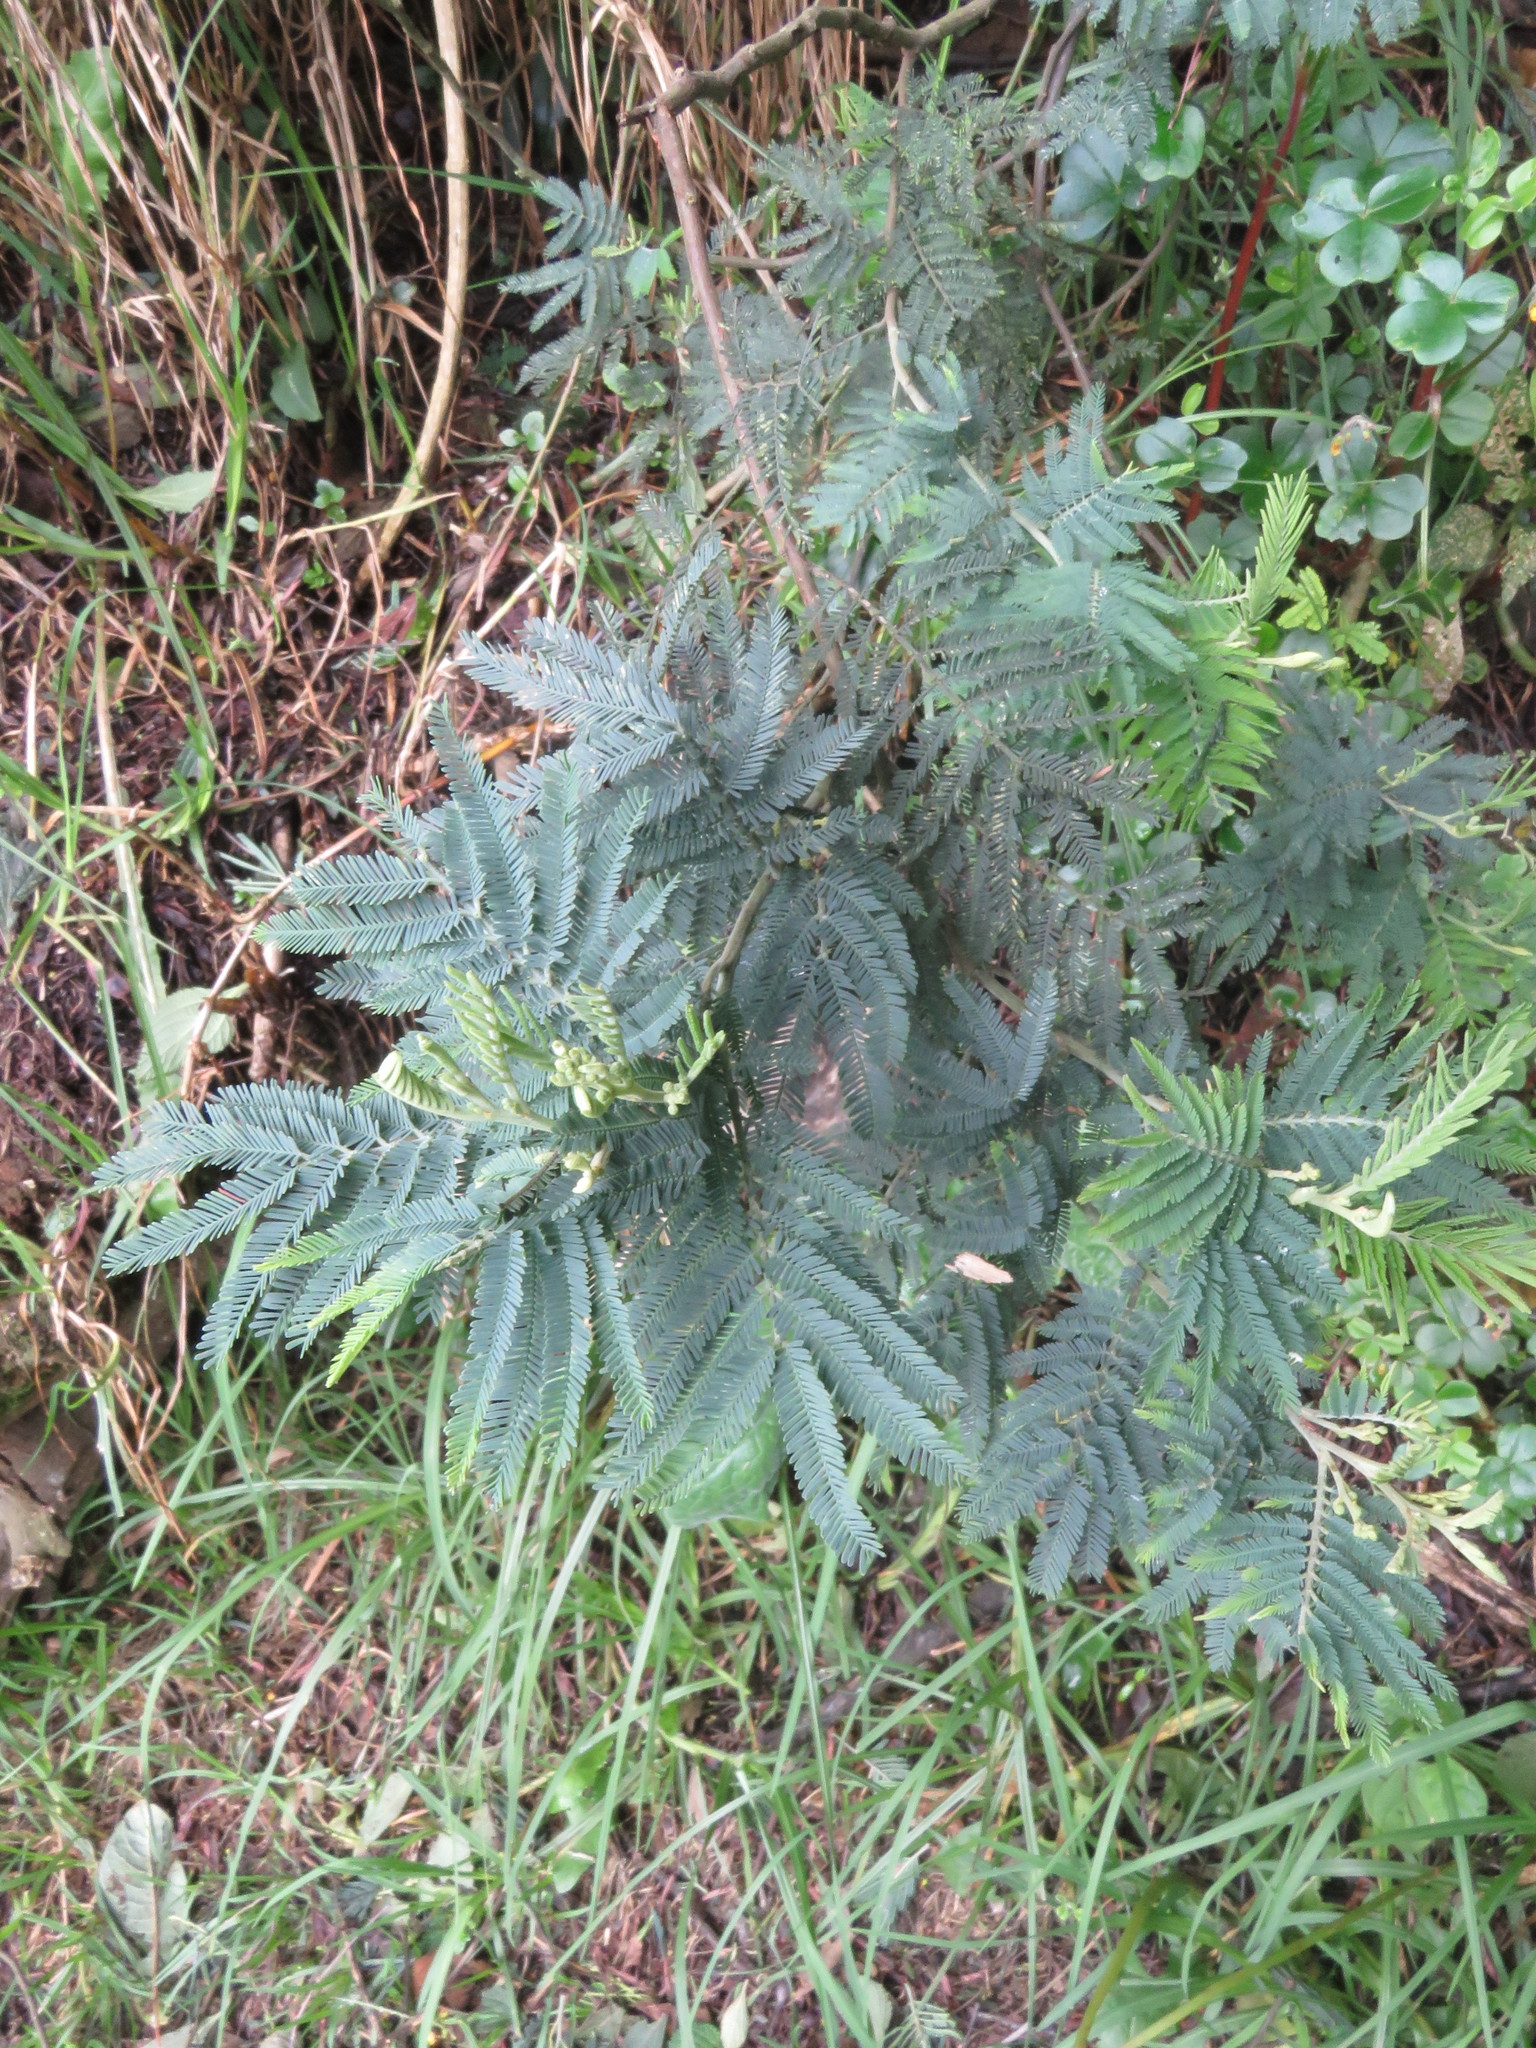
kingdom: Plantae
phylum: Tracheophyta
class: Magnoliopsida
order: Fabales
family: Fabaceae
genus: Acacia
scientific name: Acacia dealbata
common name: Silver wattle
